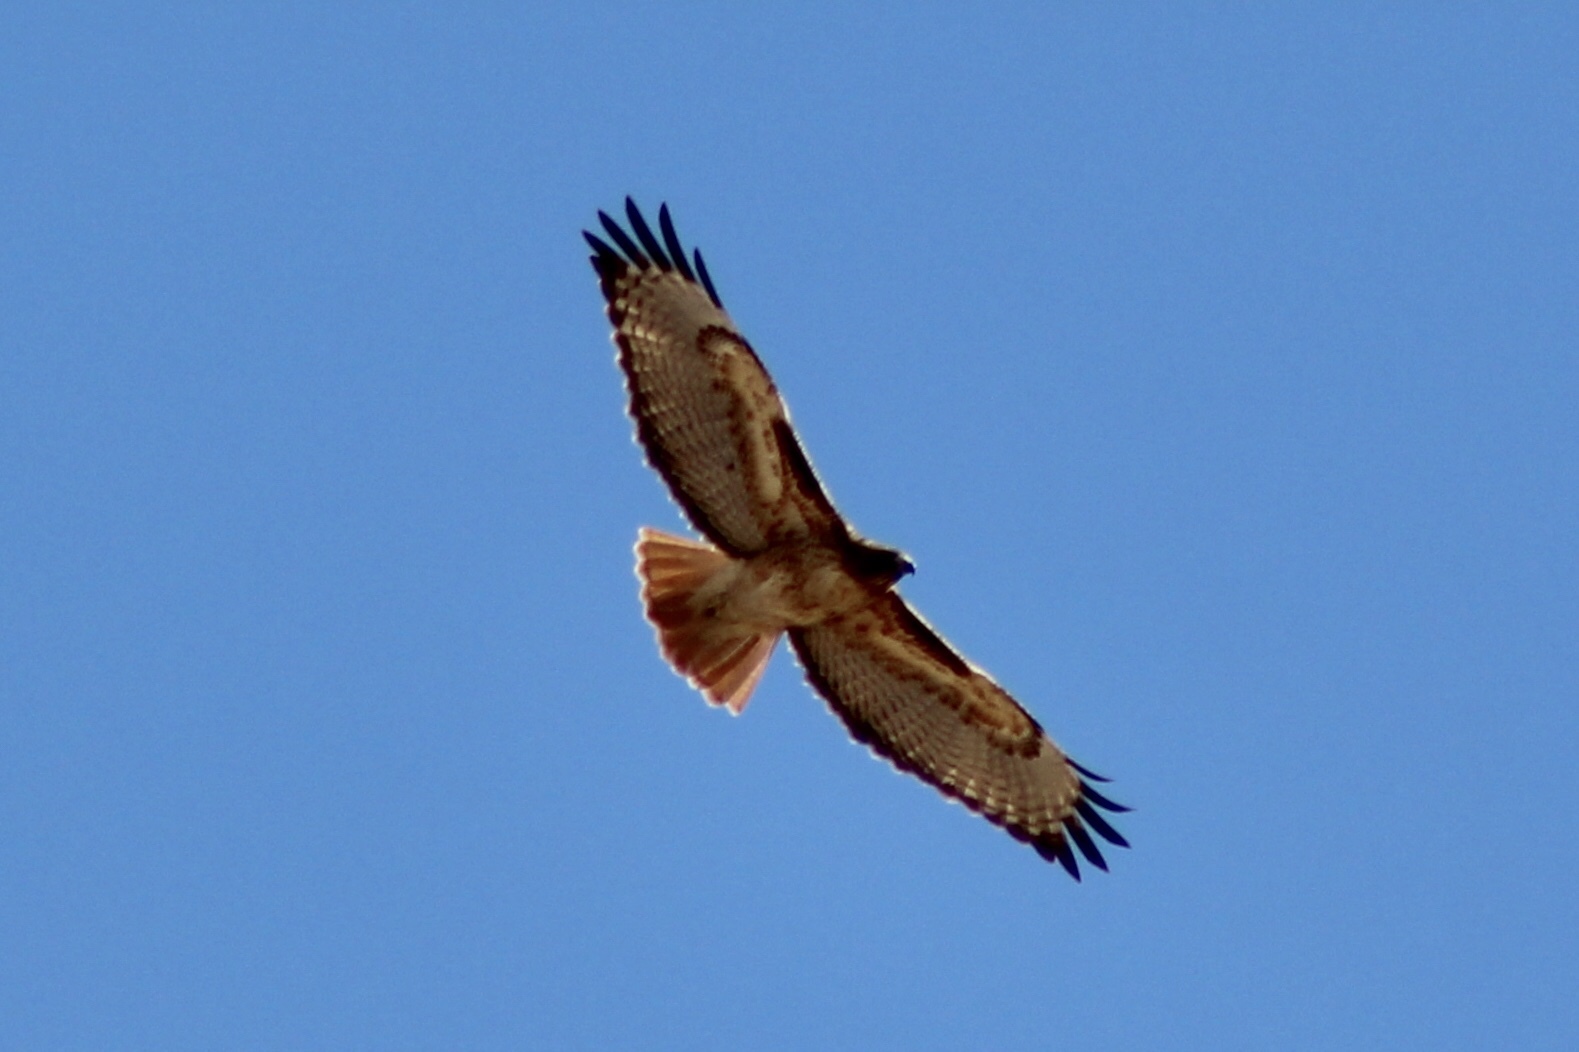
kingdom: Animalia
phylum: Chordata
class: Aves
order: Accipitriformes
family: Accipitridae
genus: Buteo
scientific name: Buteo jamaicensis
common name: Red-tailed hawk
